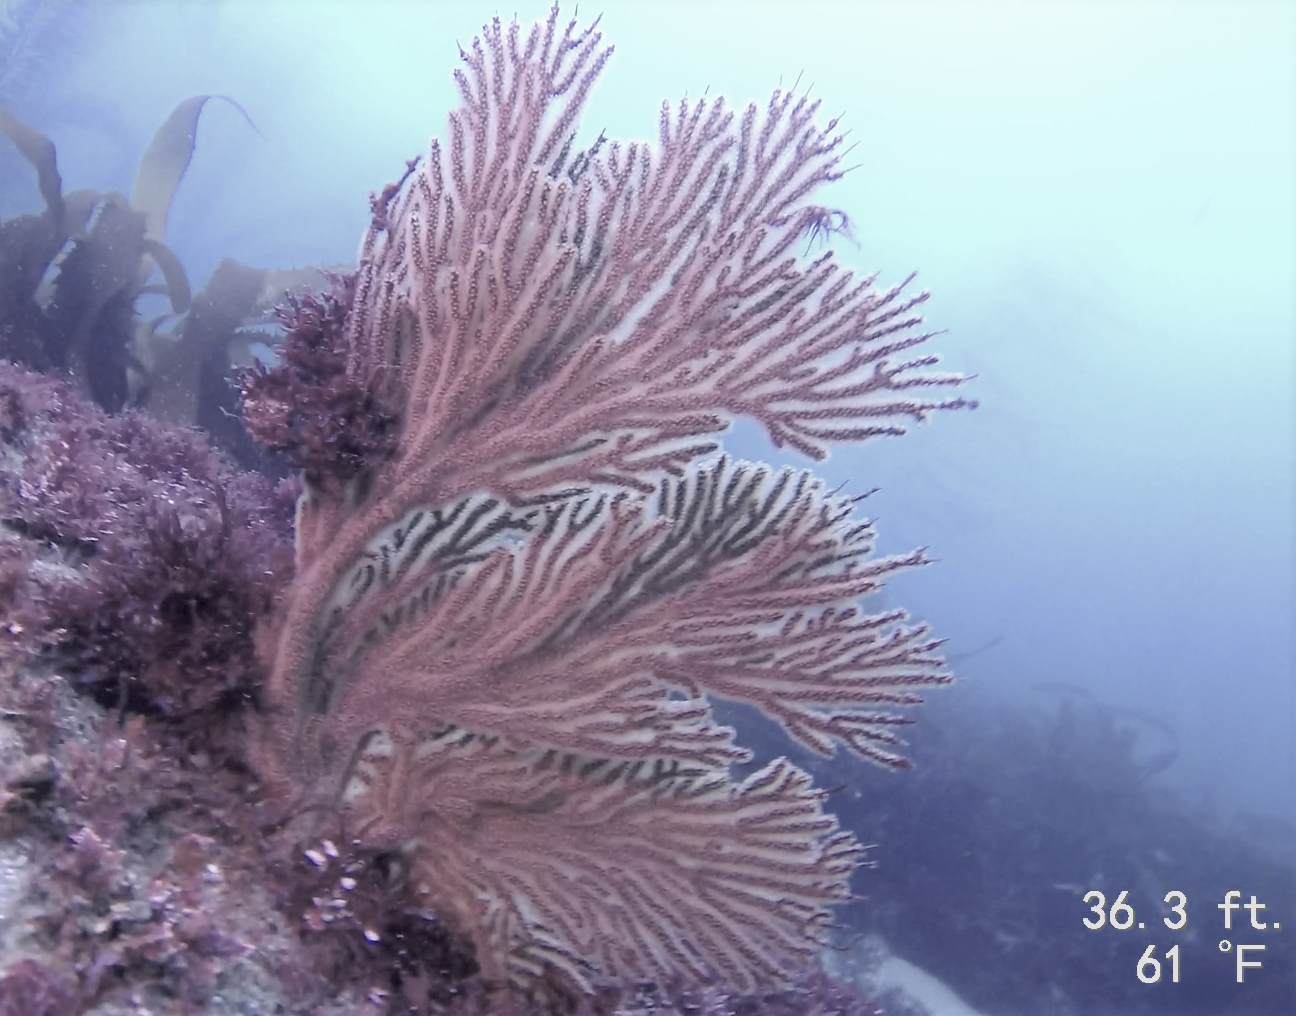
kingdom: Animalia
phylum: Cnidaria
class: Anthozoa
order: Malacalcyonacea
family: Plexauridae
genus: Muricea
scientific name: Muricea californica
